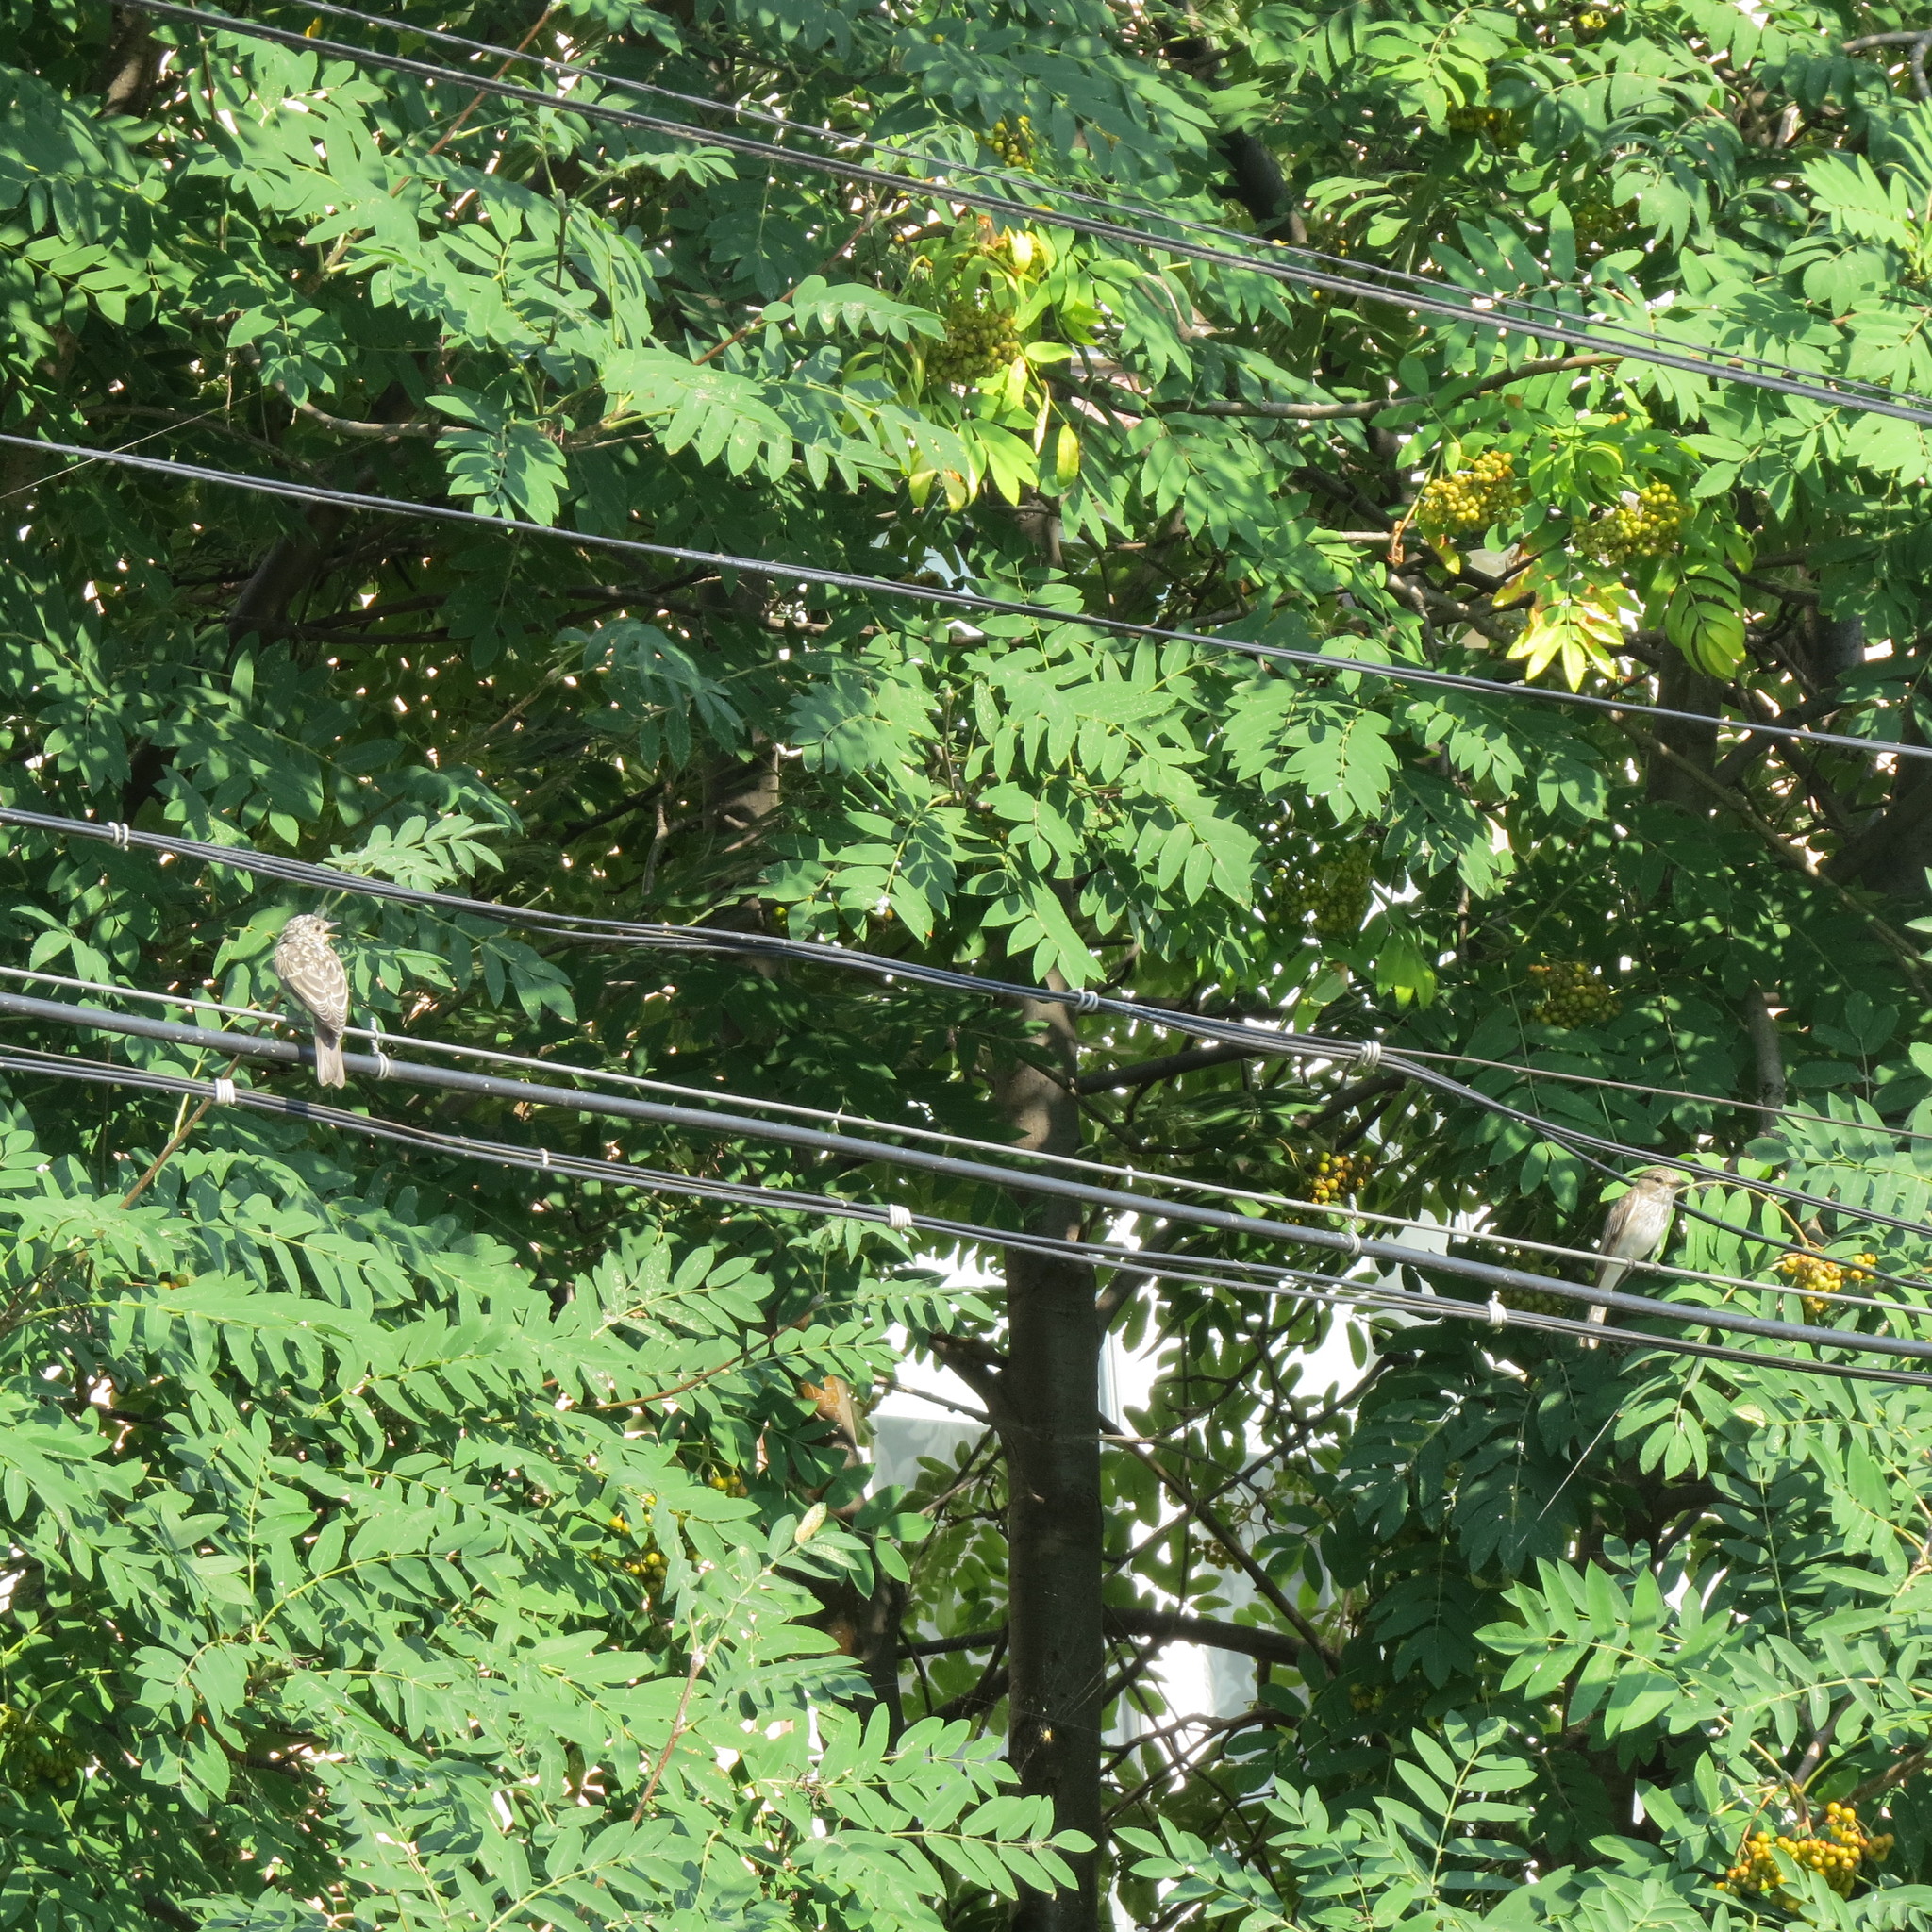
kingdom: Animalia
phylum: Chordata
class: Aves
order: Passeriformes
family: Muscicapidae
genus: Muscicapa
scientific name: Muscicapa striata
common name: Spotted flycatcher
